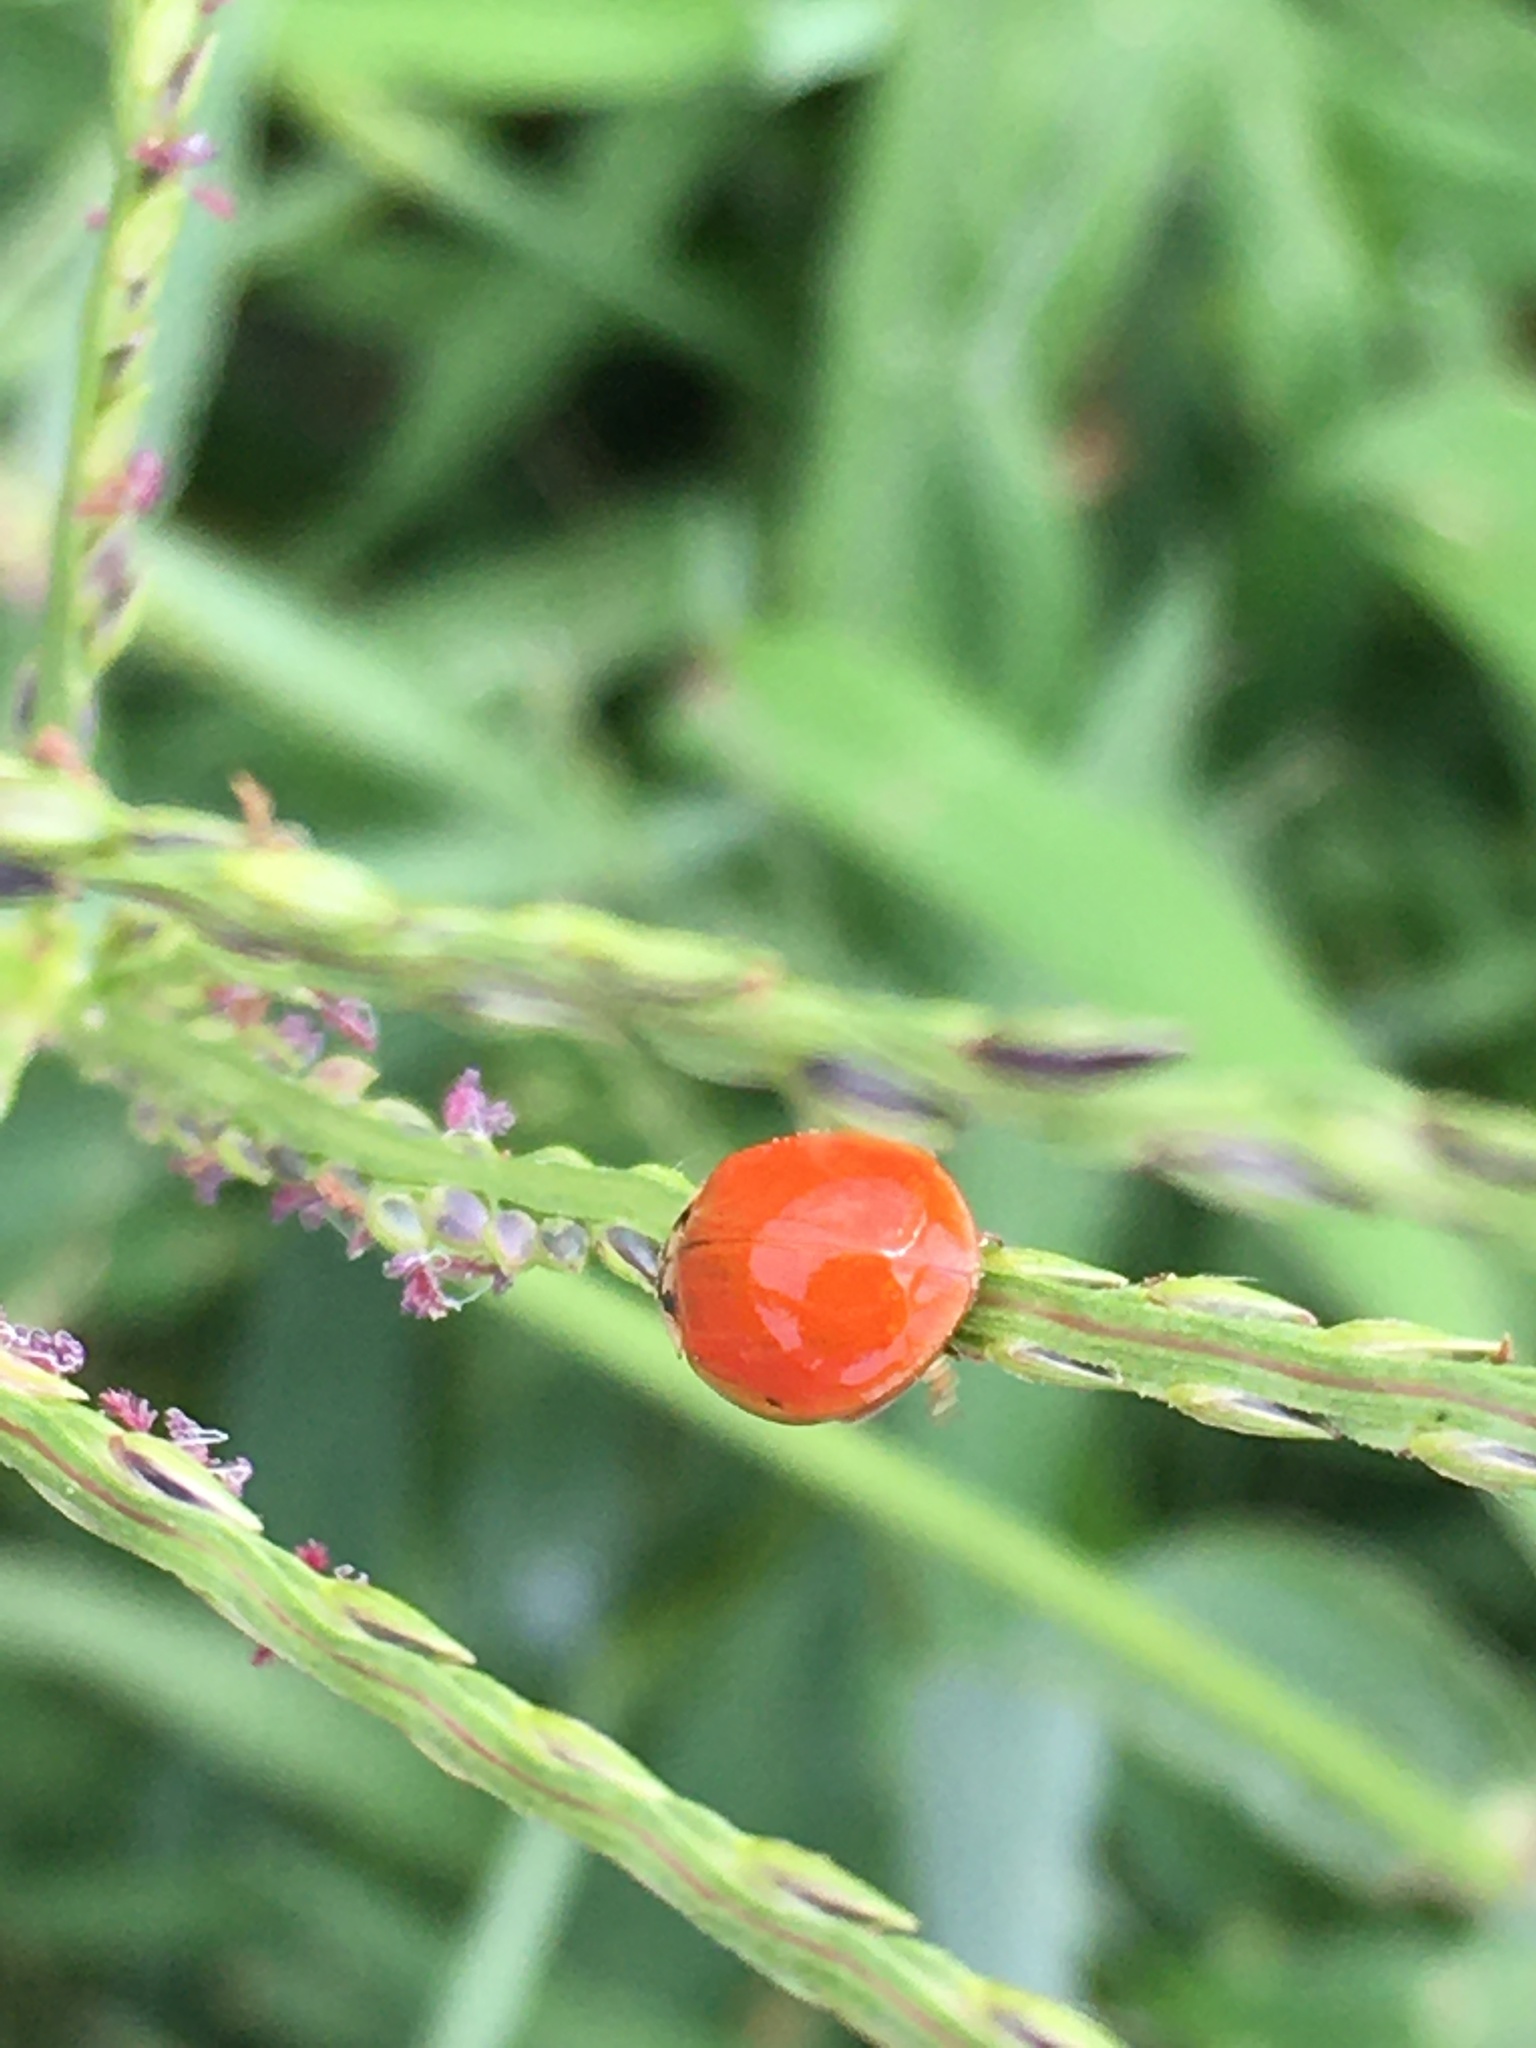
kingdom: Animalia
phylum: Arthropoda
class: Insecta
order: Coleoptera
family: Coccinellidae
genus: Harmonia
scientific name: Harmonia axyridis
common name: Harlequin ladybird
